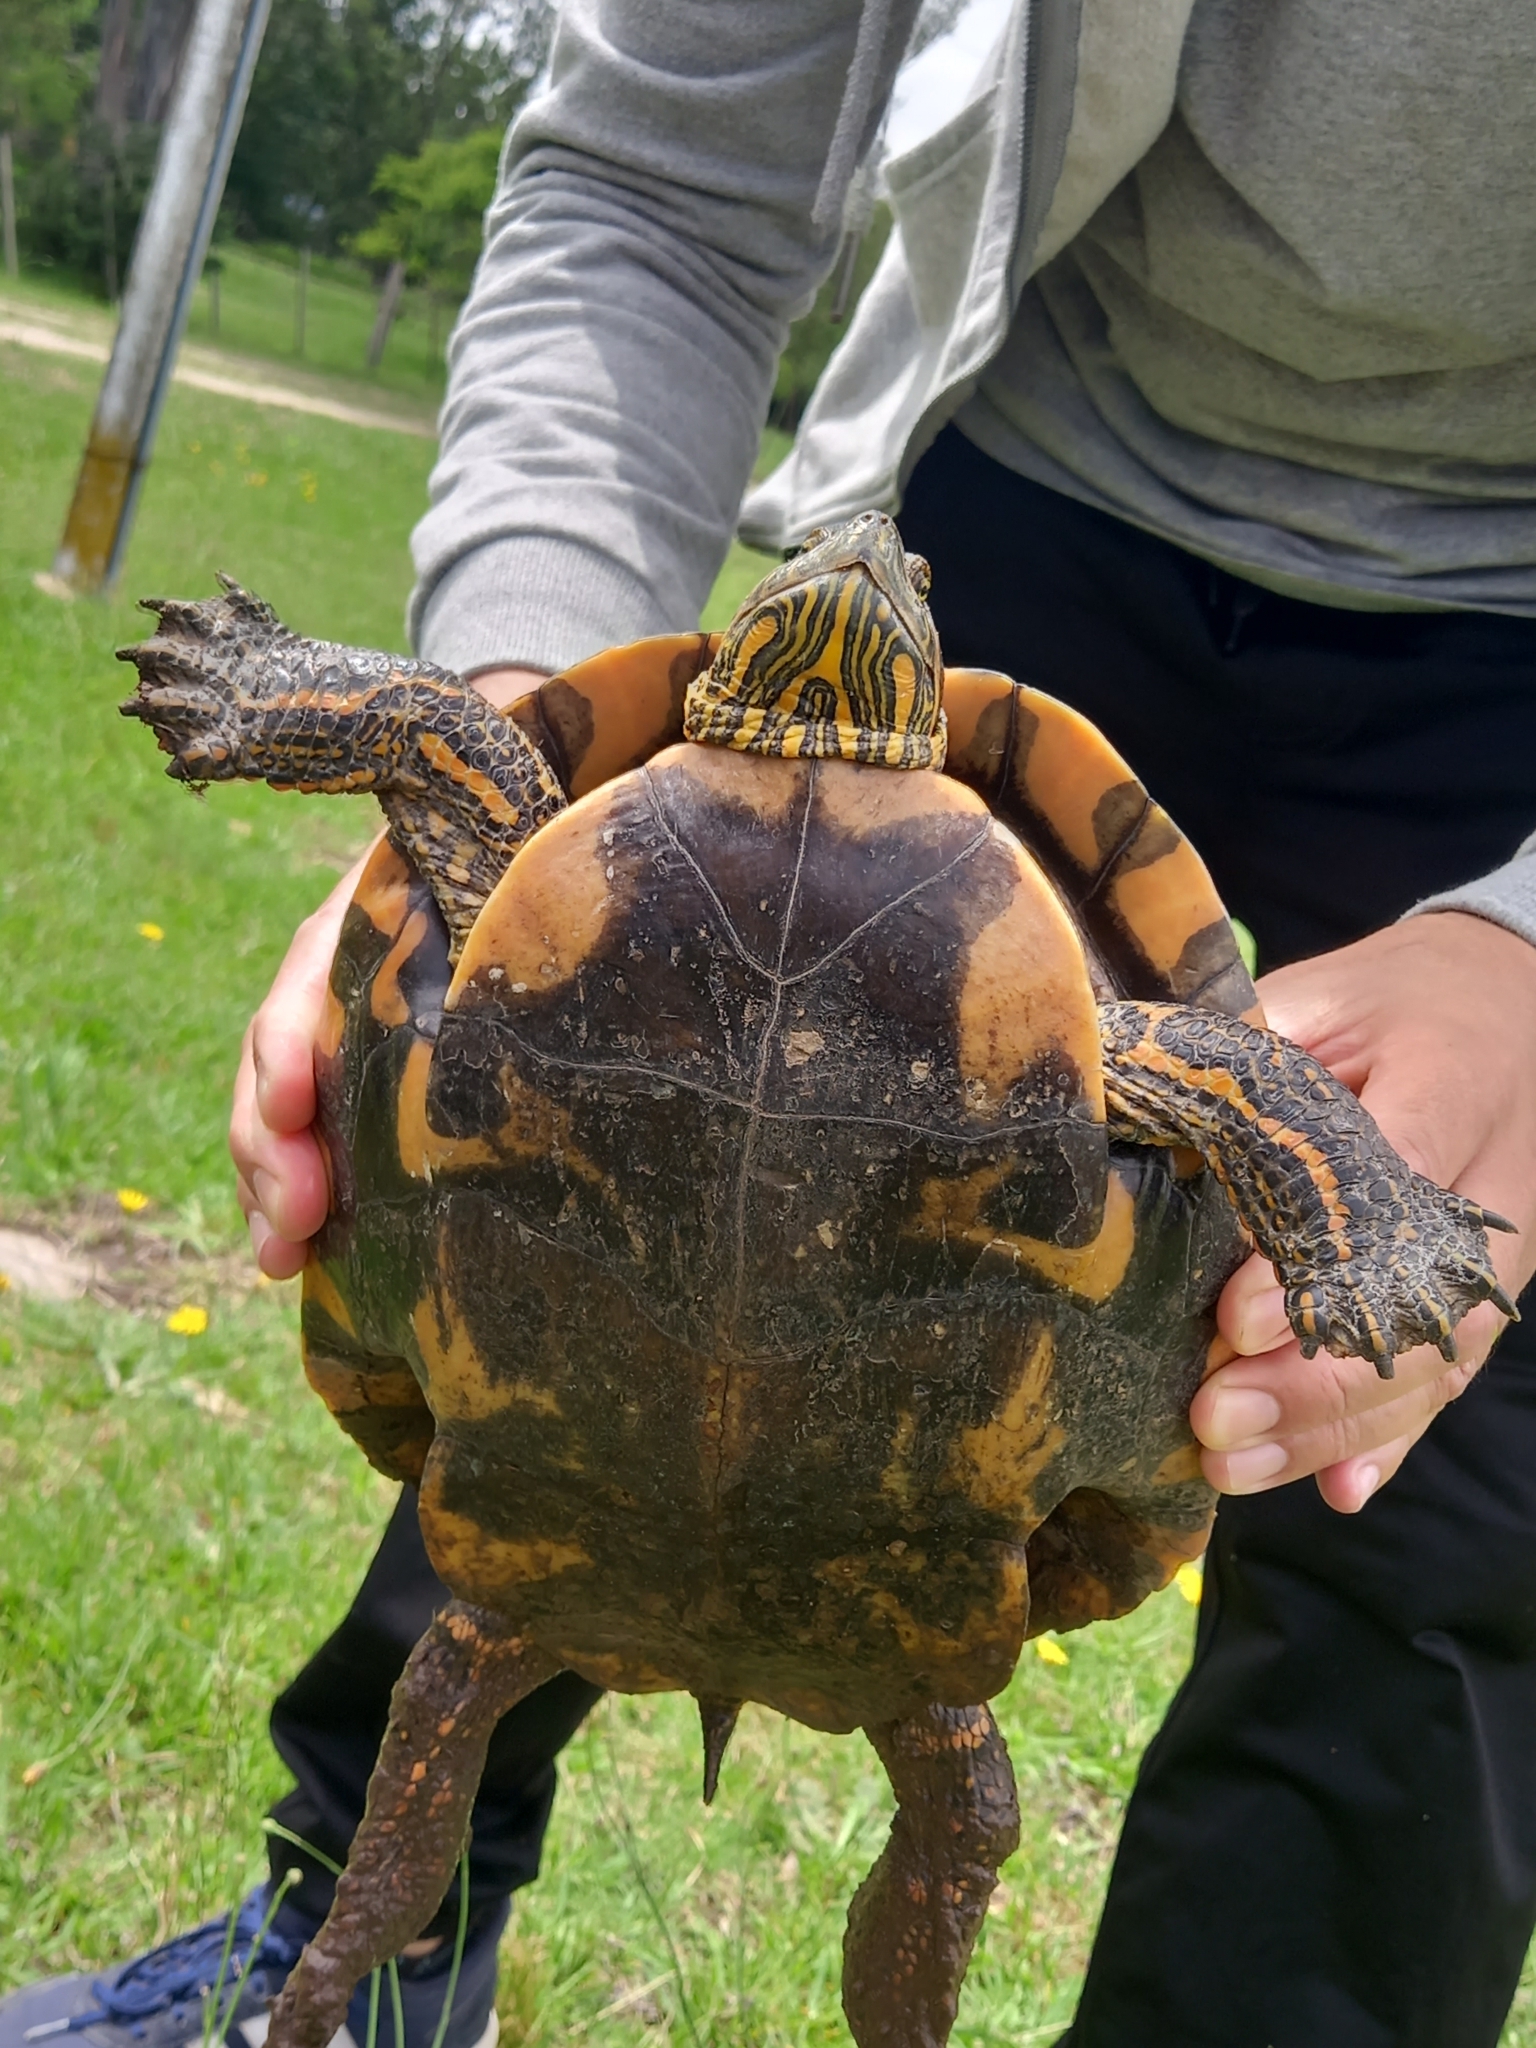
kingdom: Animalia
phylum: Chordata
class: Testudines
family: Emydidae
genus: Trachemys
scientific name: Trachemys dorbigni
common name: Black-bellied slider
